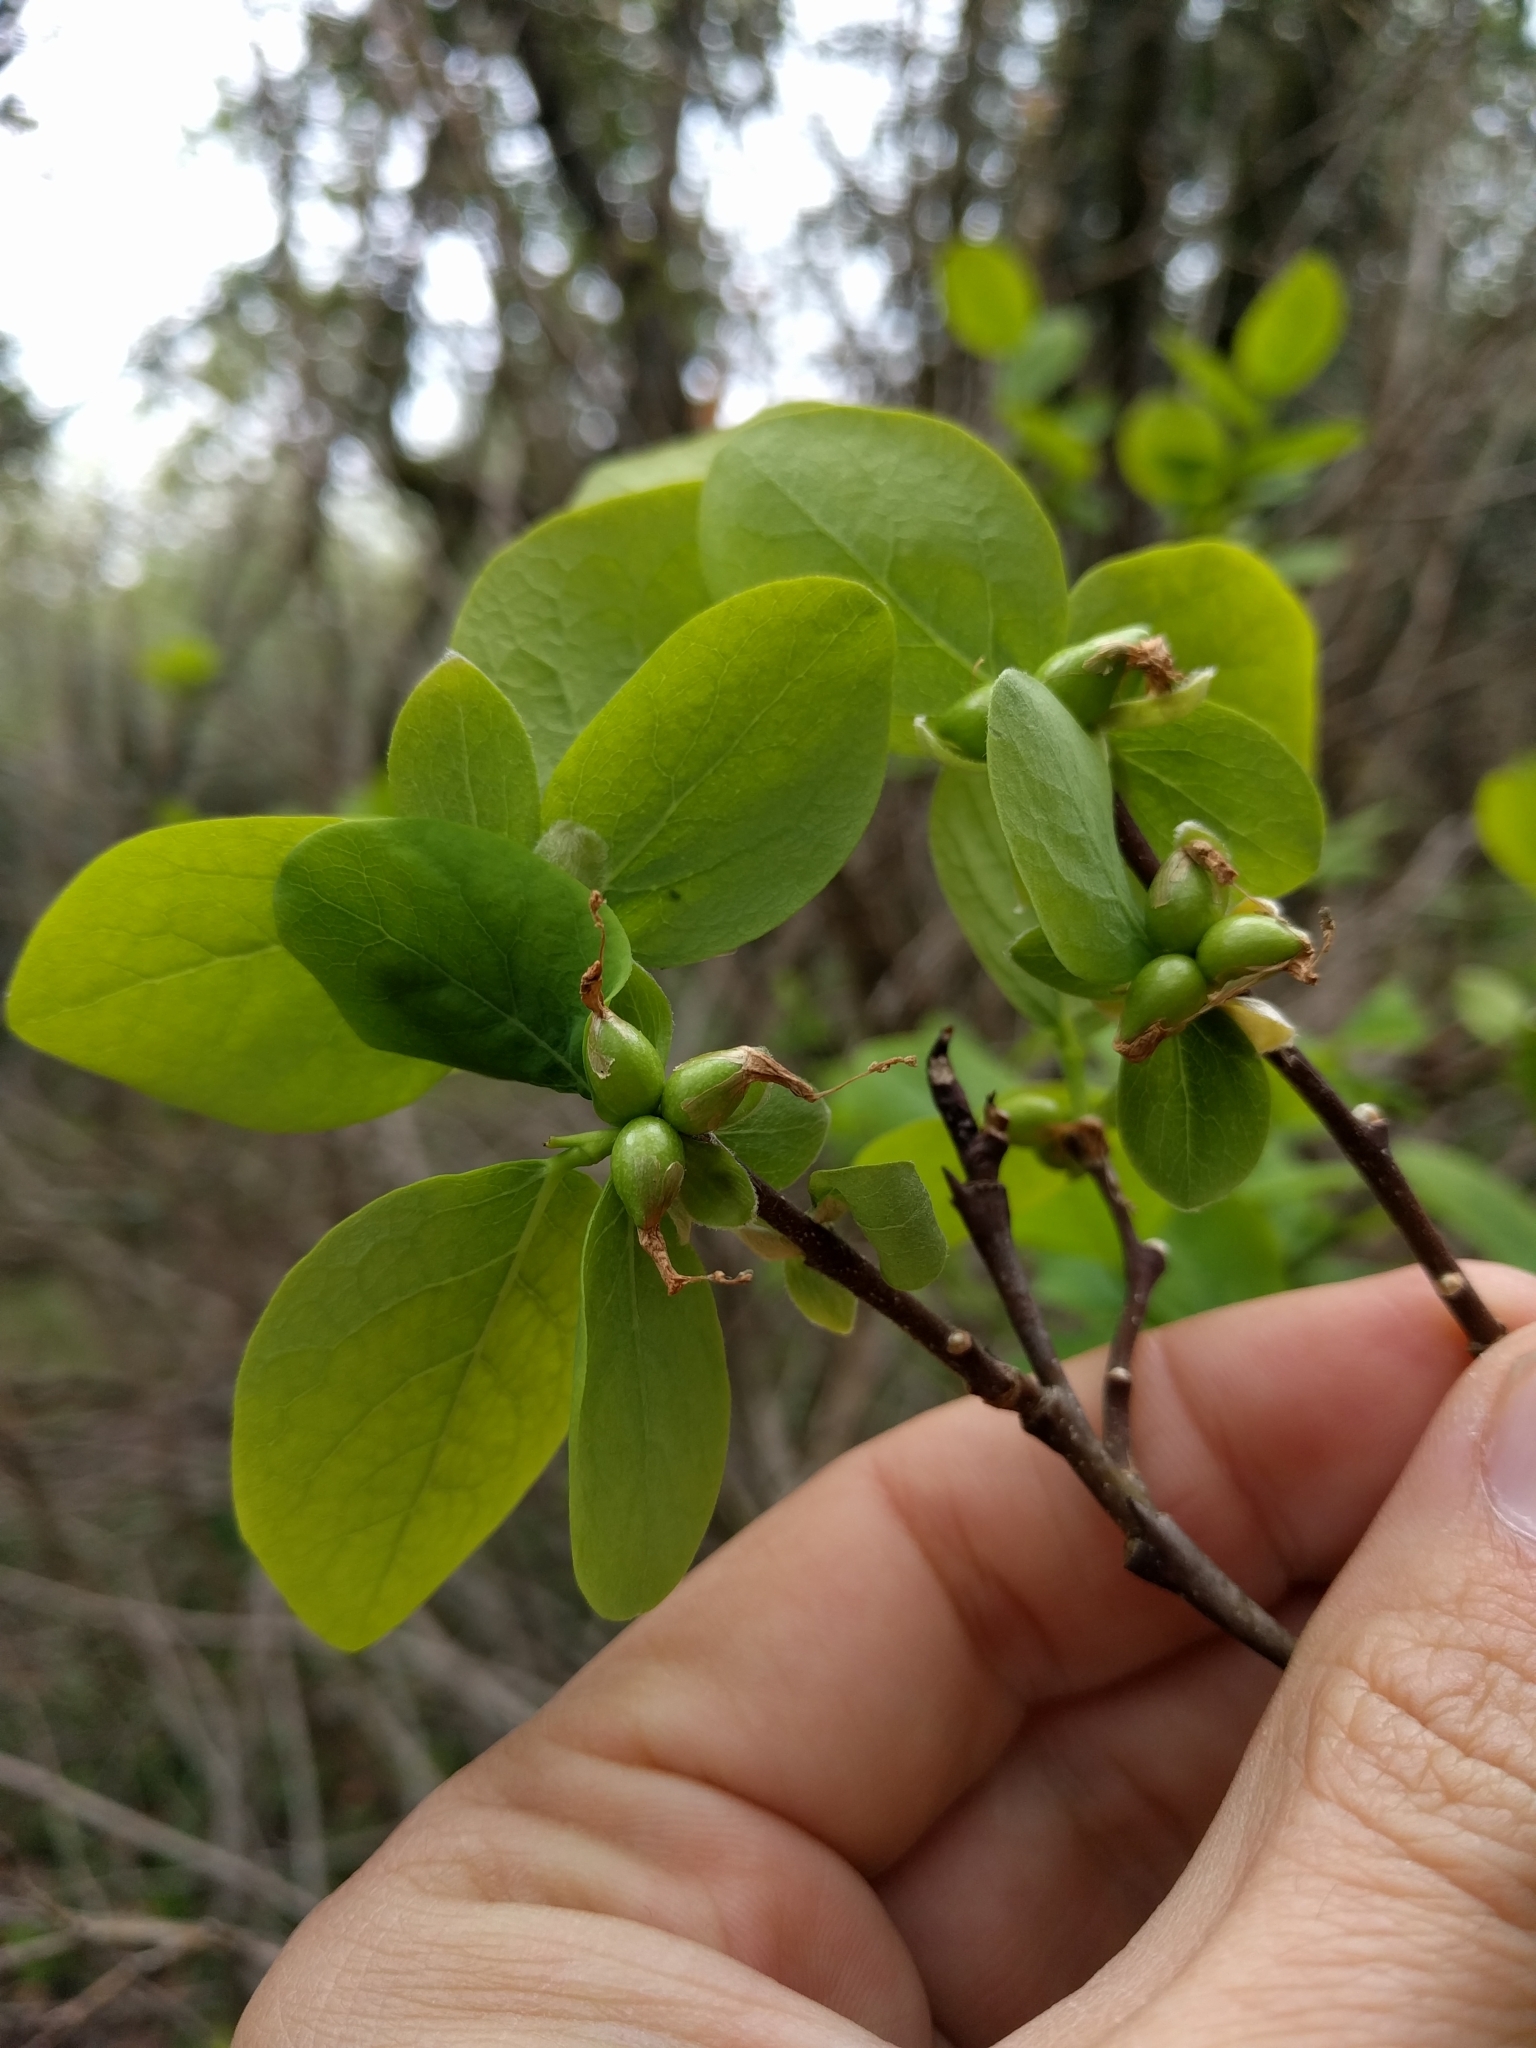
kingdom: Plantae
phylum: Tracheophyta
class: Magnoliopsida
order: Malvales
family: Thymelaeaceae
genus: Dirca
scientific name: Dirca occidentalis
